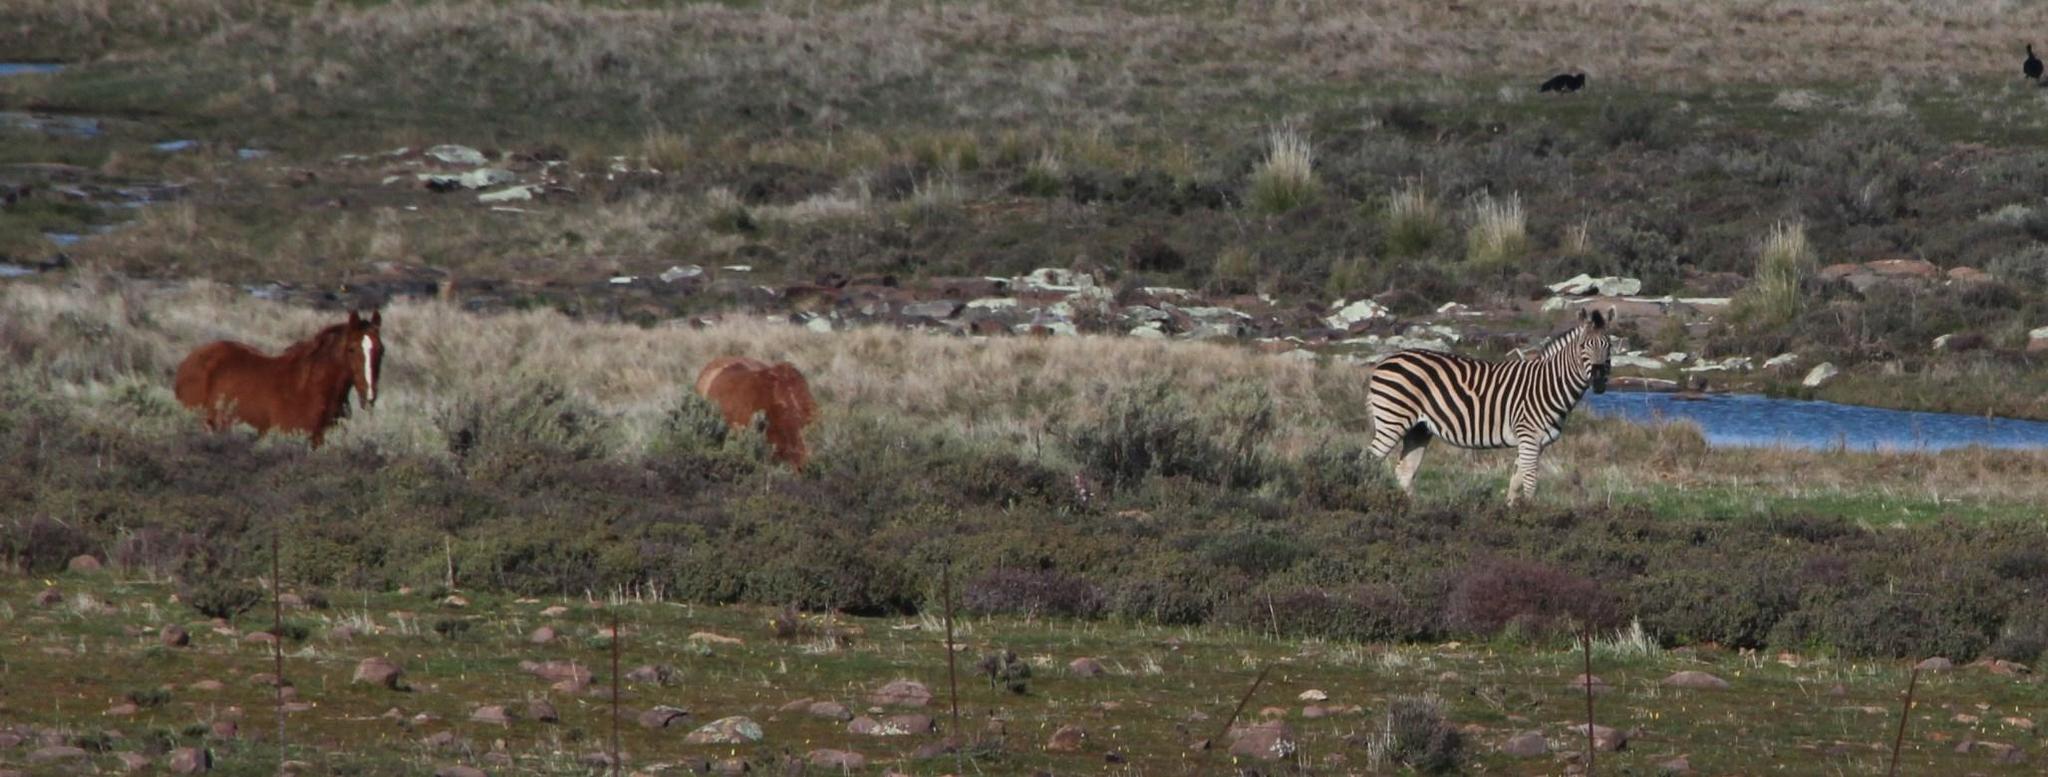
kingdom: Animalia
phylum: Chordata
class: Mammalia
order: Perissodactyla
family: Equidae
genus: Equus
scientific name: Equus quagga
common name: Plains zebra
